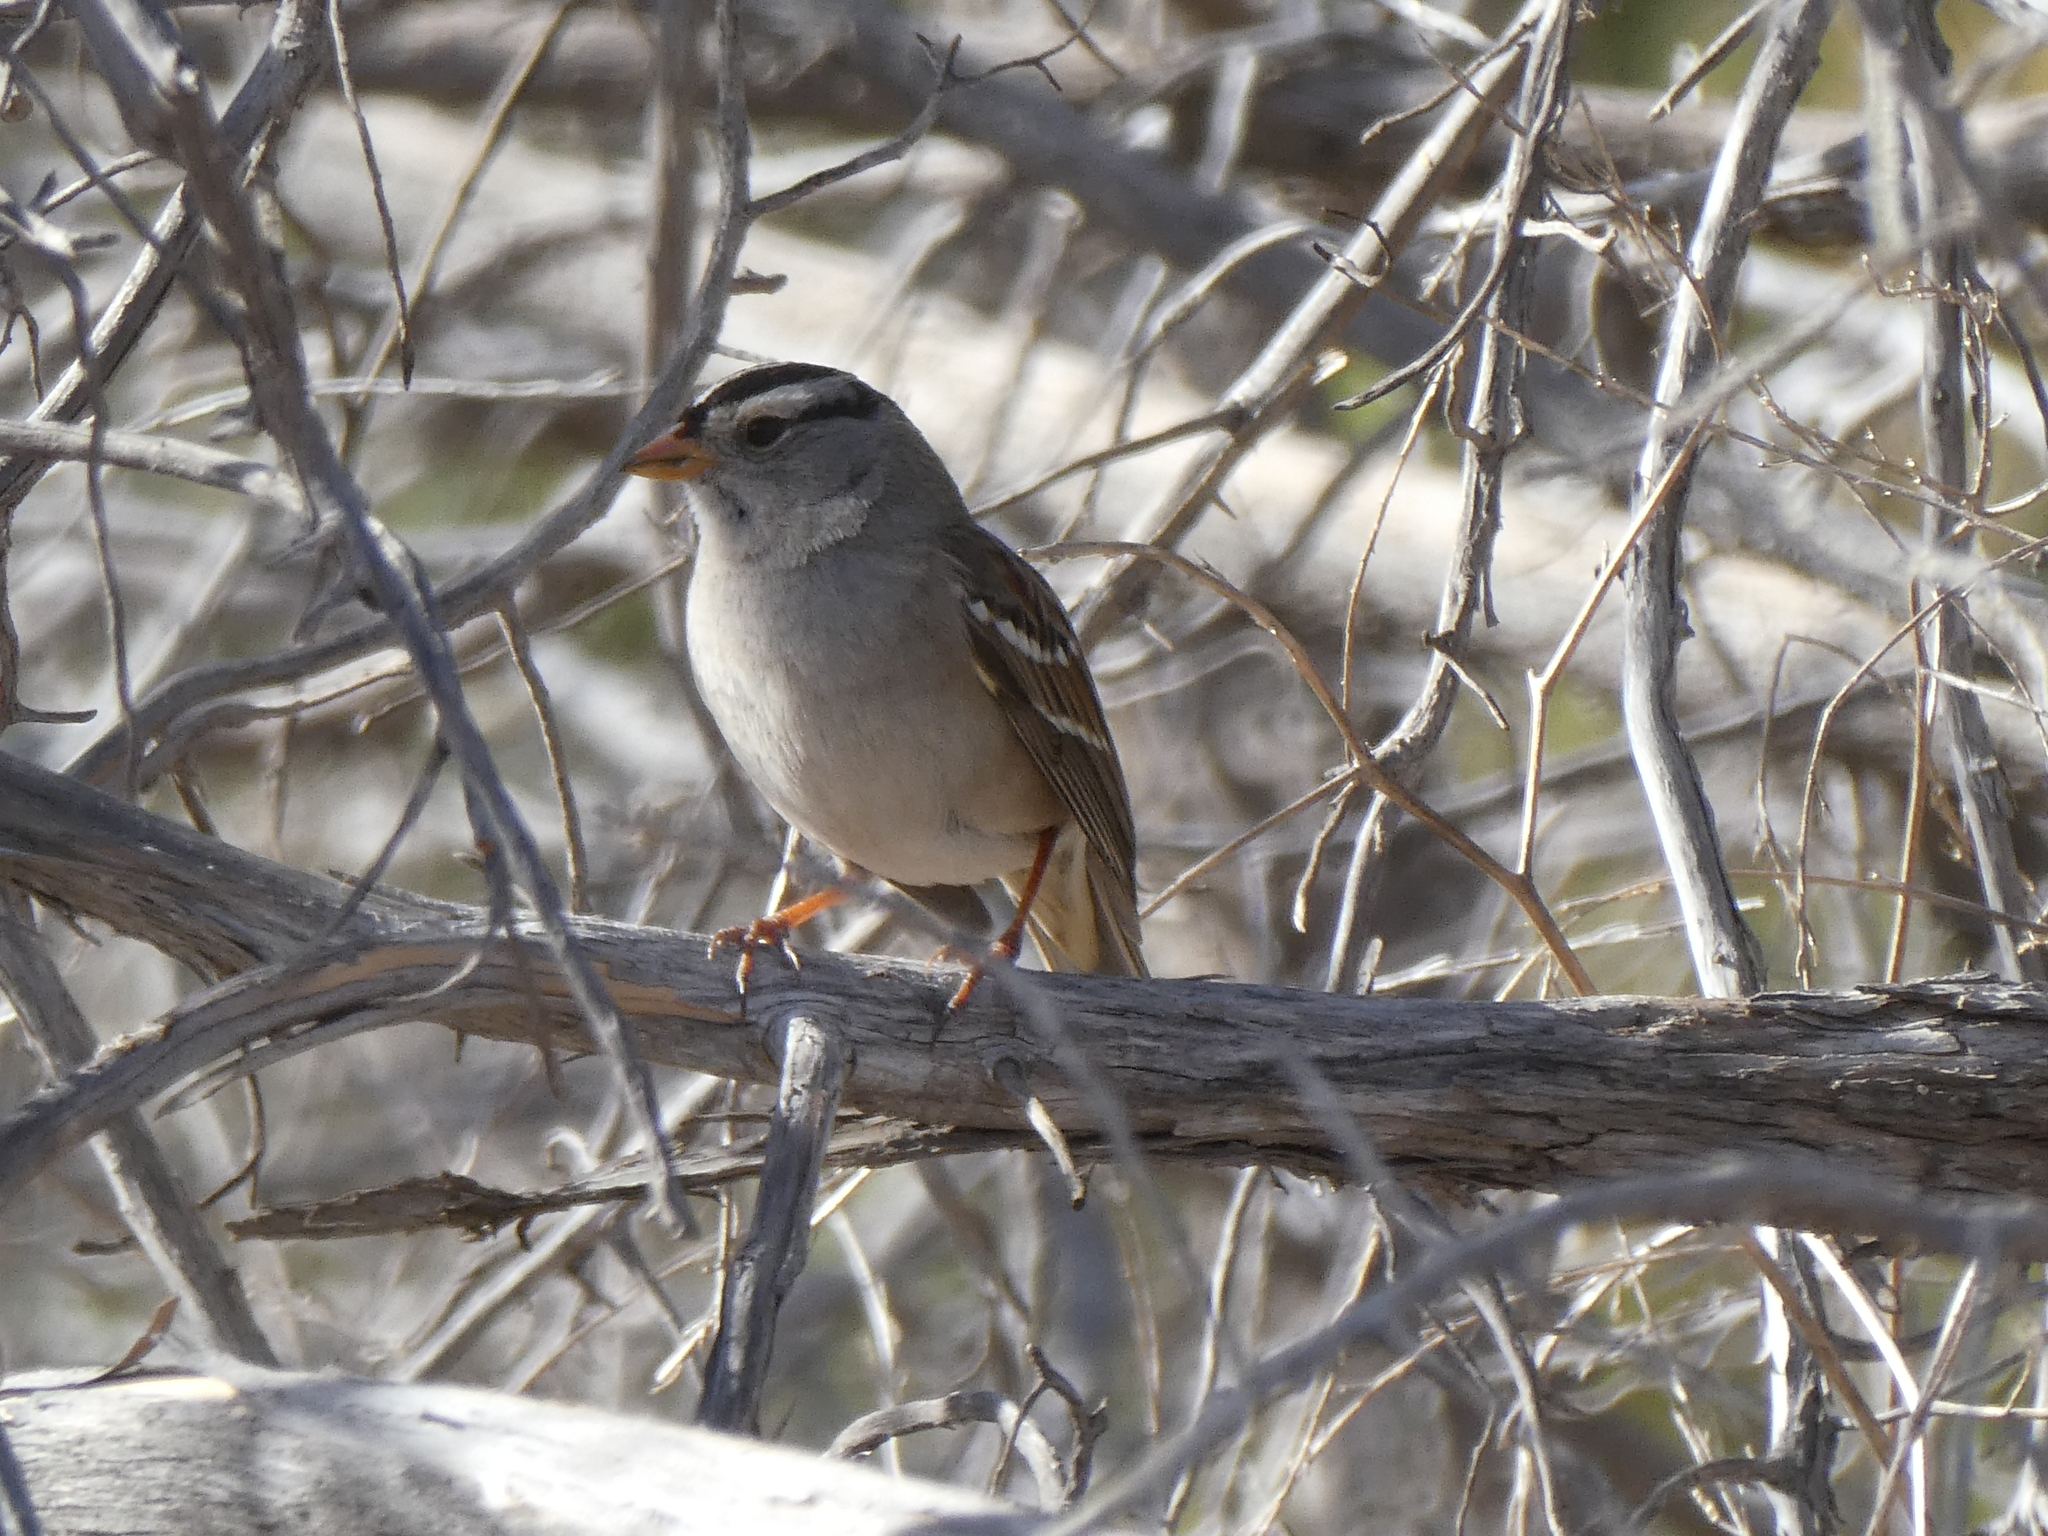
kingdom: Animalia
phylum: Chordata
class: Aves
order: Passeriformes
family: Passerellidae
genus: Zonotrichia
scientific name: Zonotrichia leucophrys
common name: White-crowned sparrow
